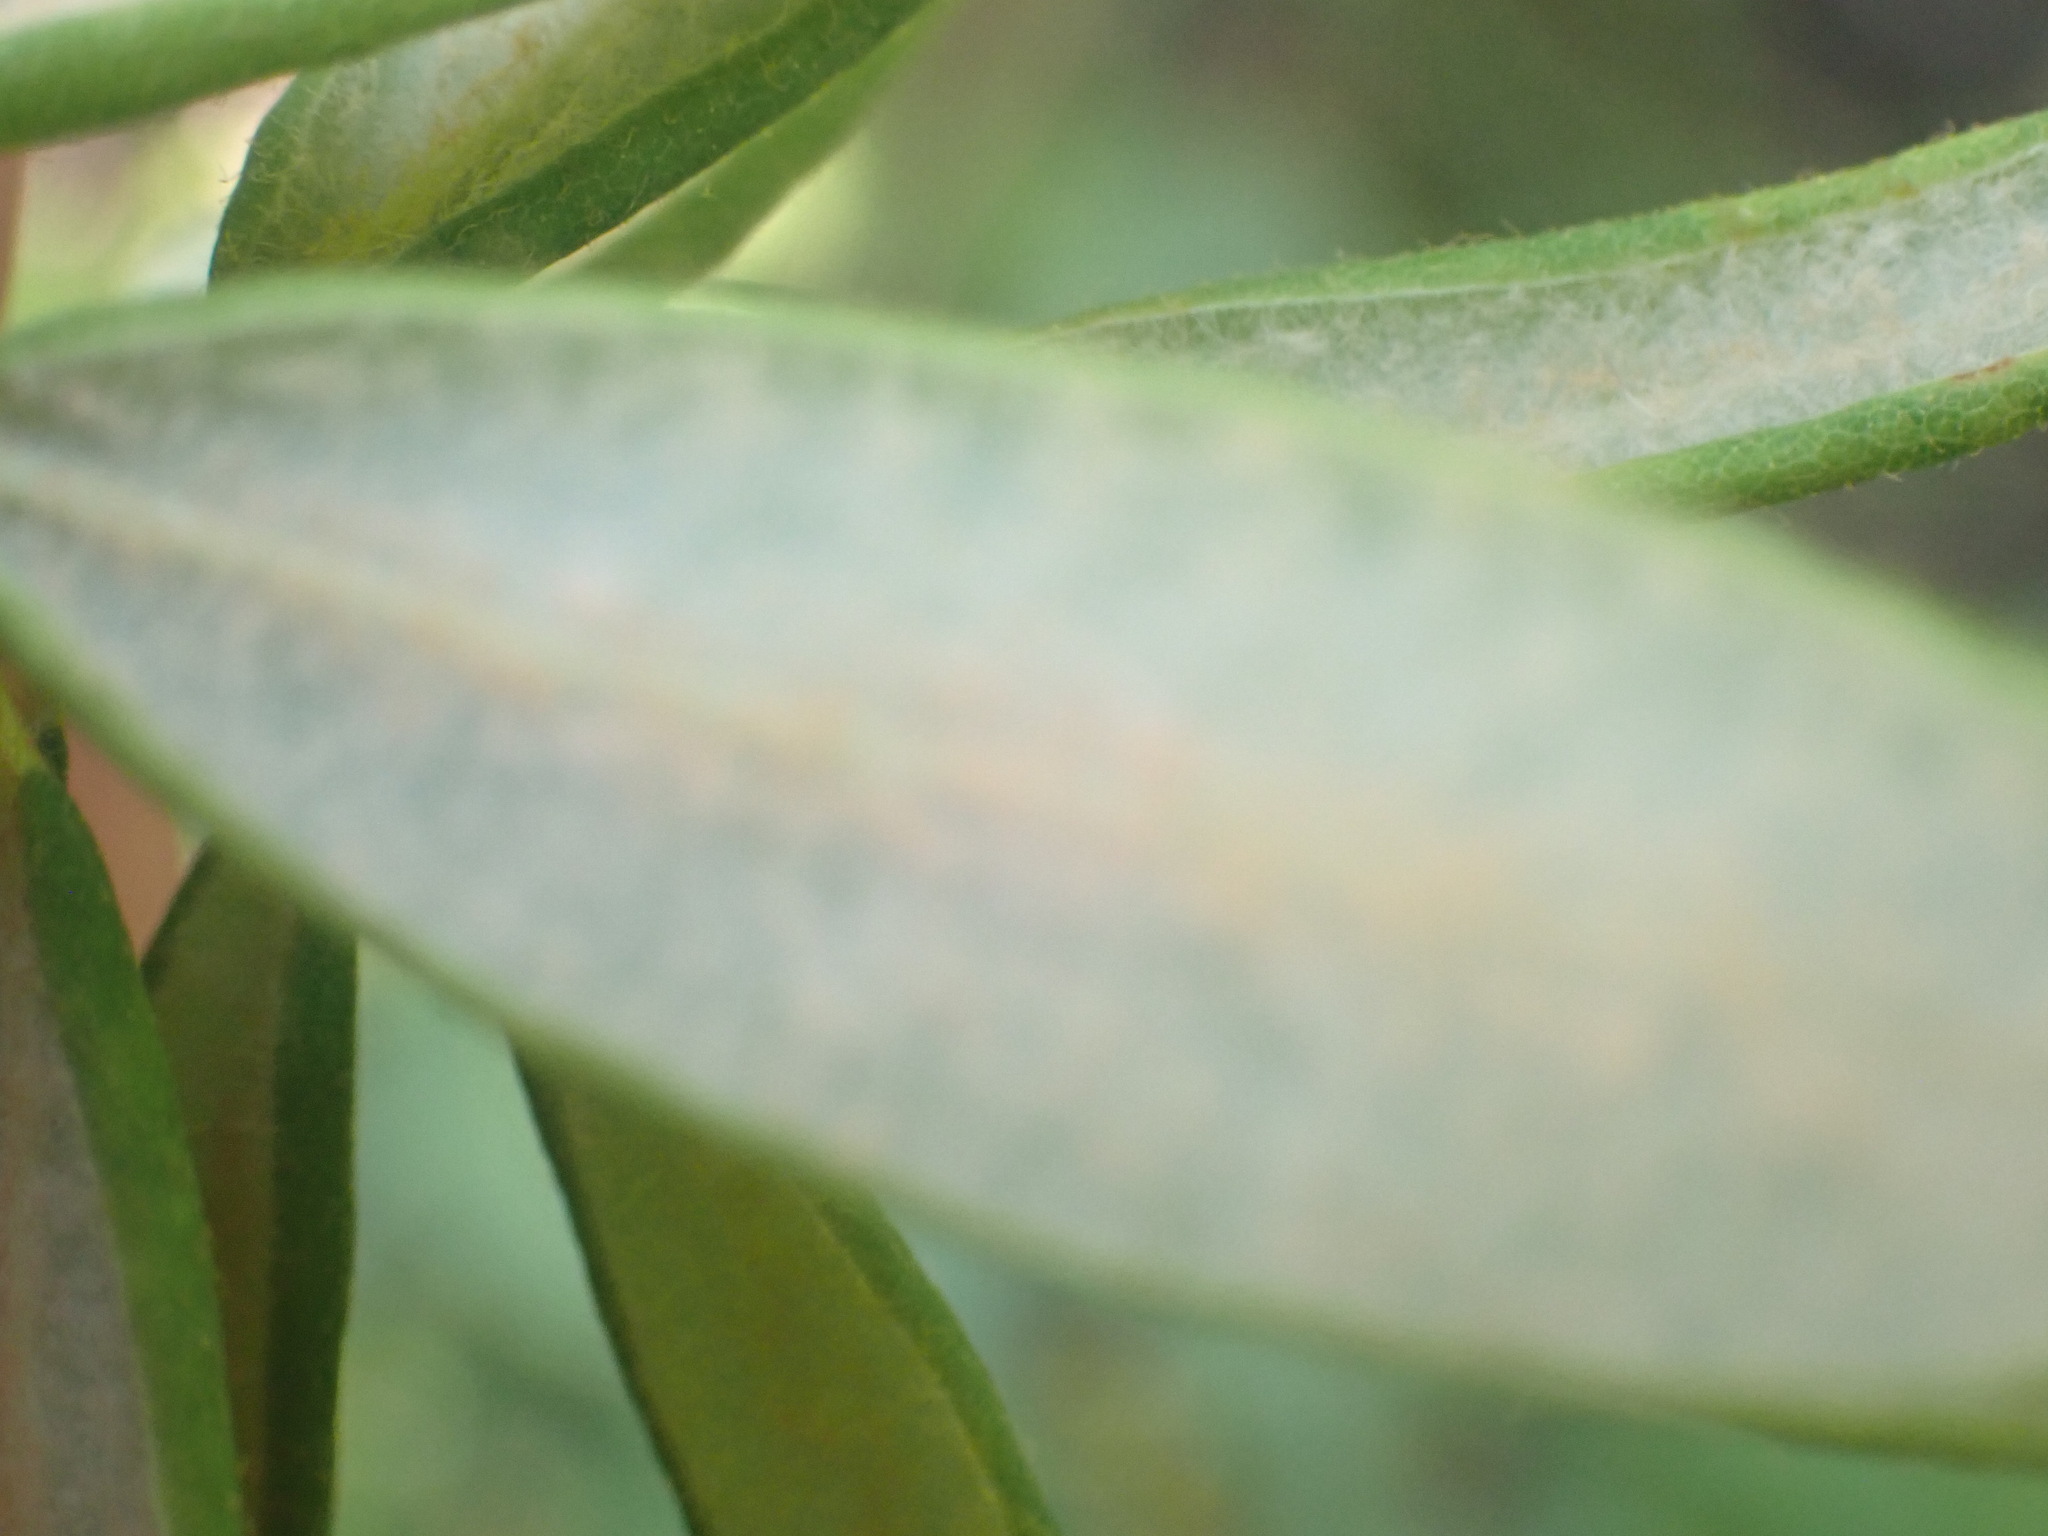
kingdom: Plantae
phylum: Tracheophyta
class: Magnoliopsida
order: Ericales
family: Ericaceae
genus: Rhododendron
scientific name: Rhododendron groenlandicum
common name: Bog labrador tea
